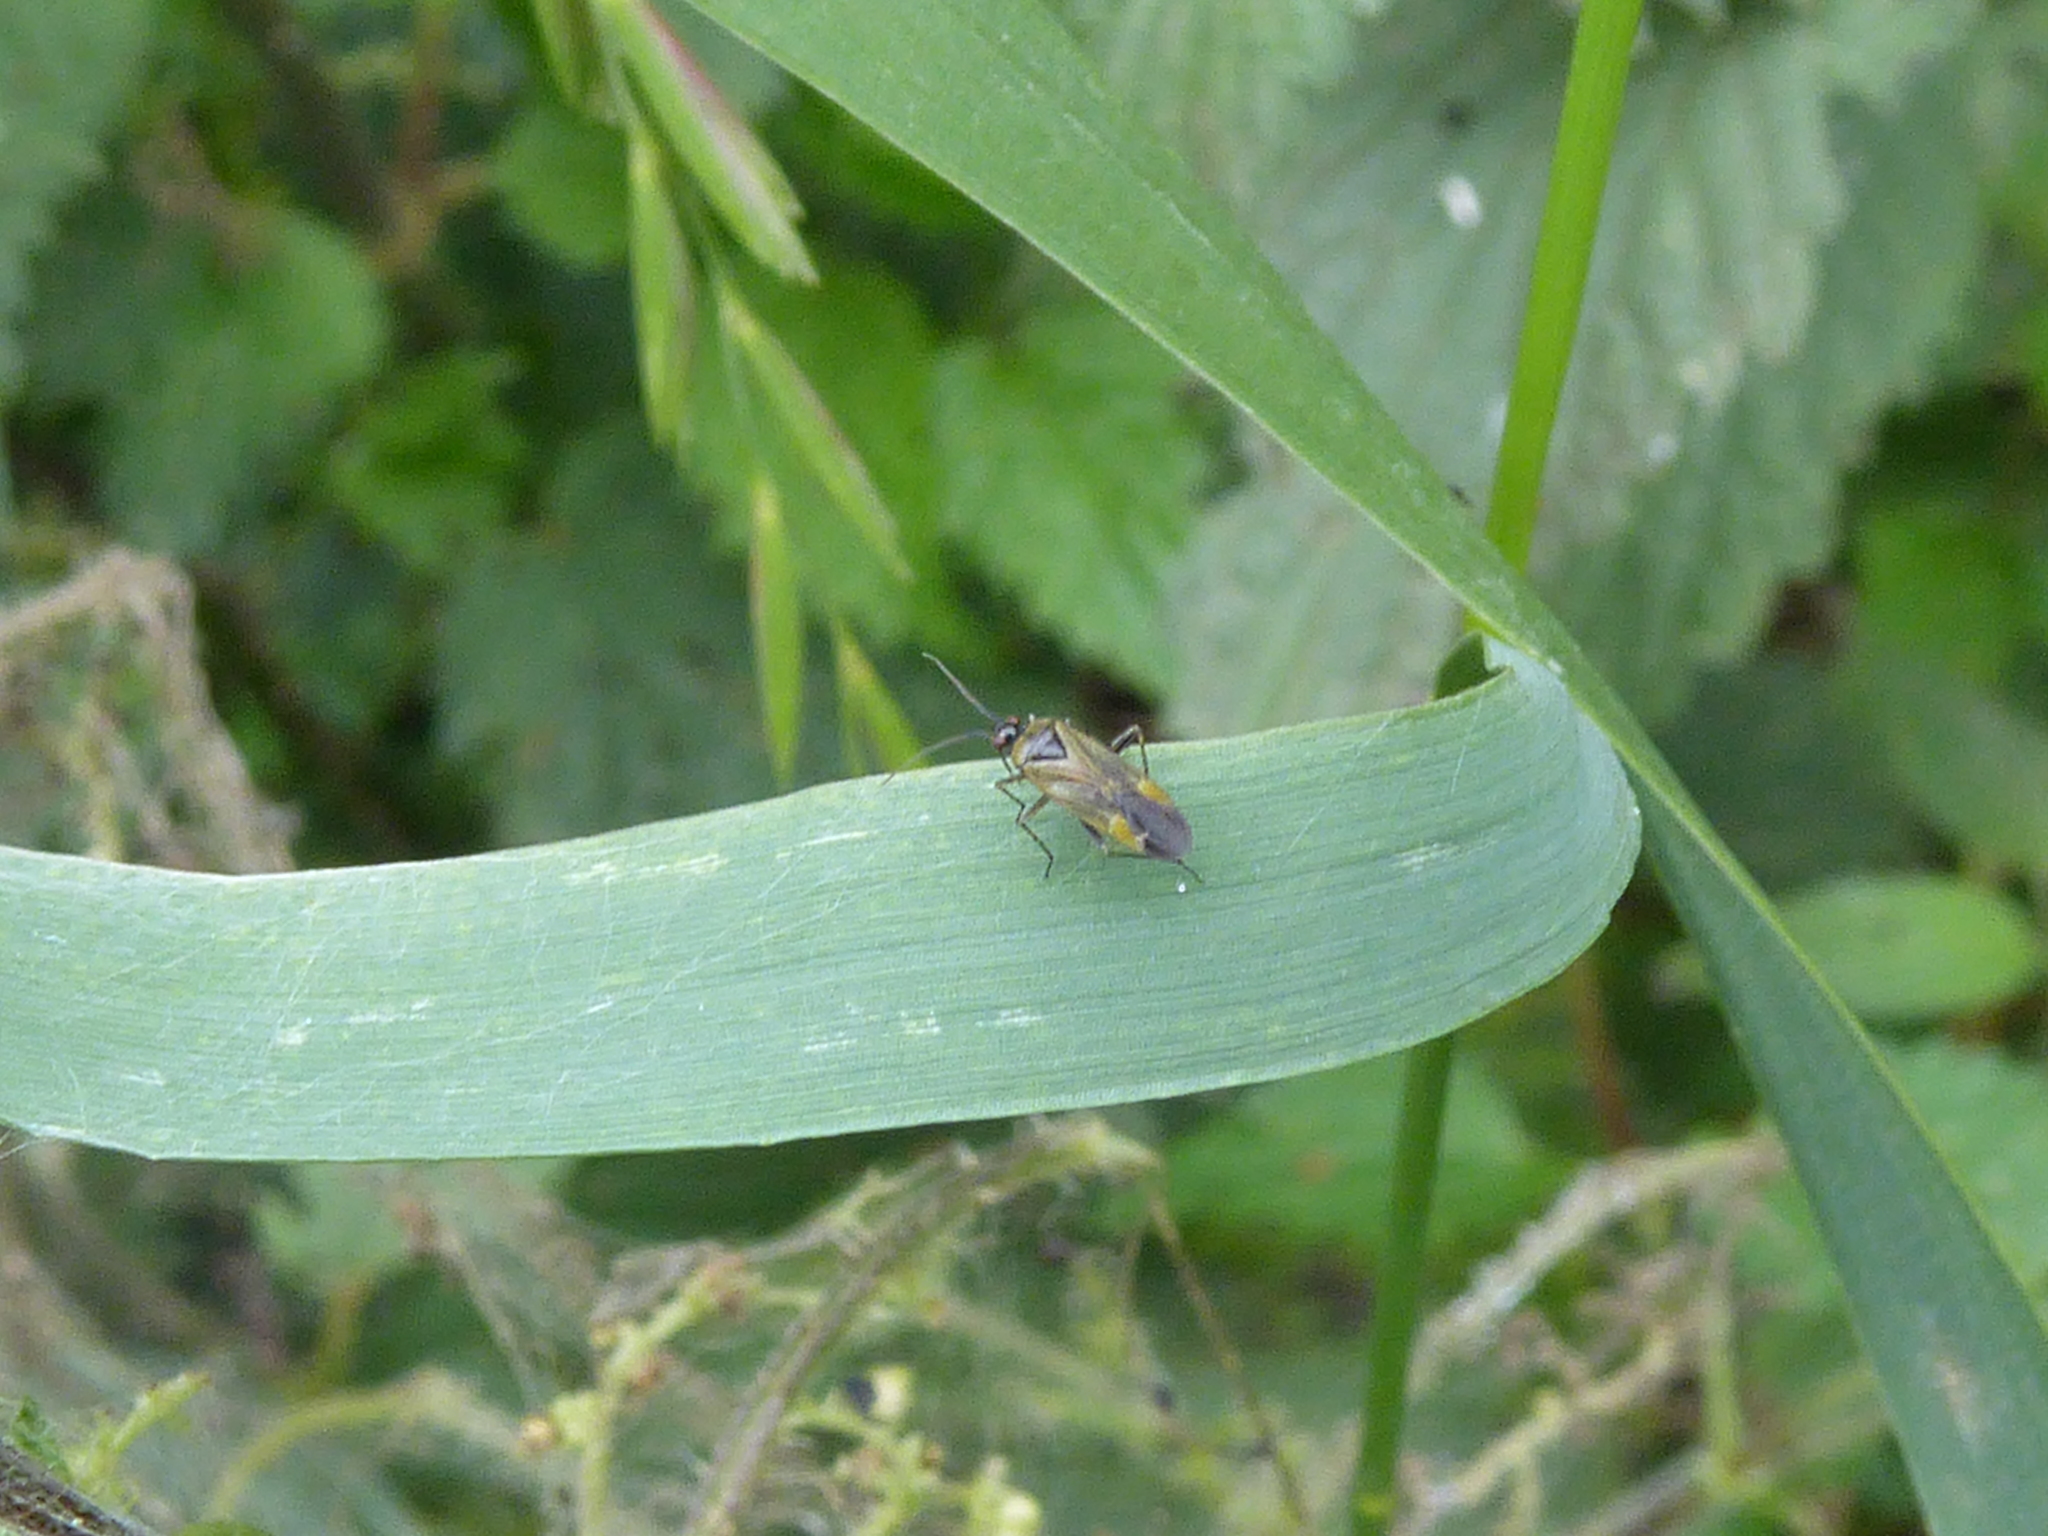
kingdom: Animalia
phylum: Arthropoda
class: Insecta
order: Hemiptera
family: Miridae
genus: Plagiognathus
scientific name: Plagiognathus arbustorum
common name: Plant bug
